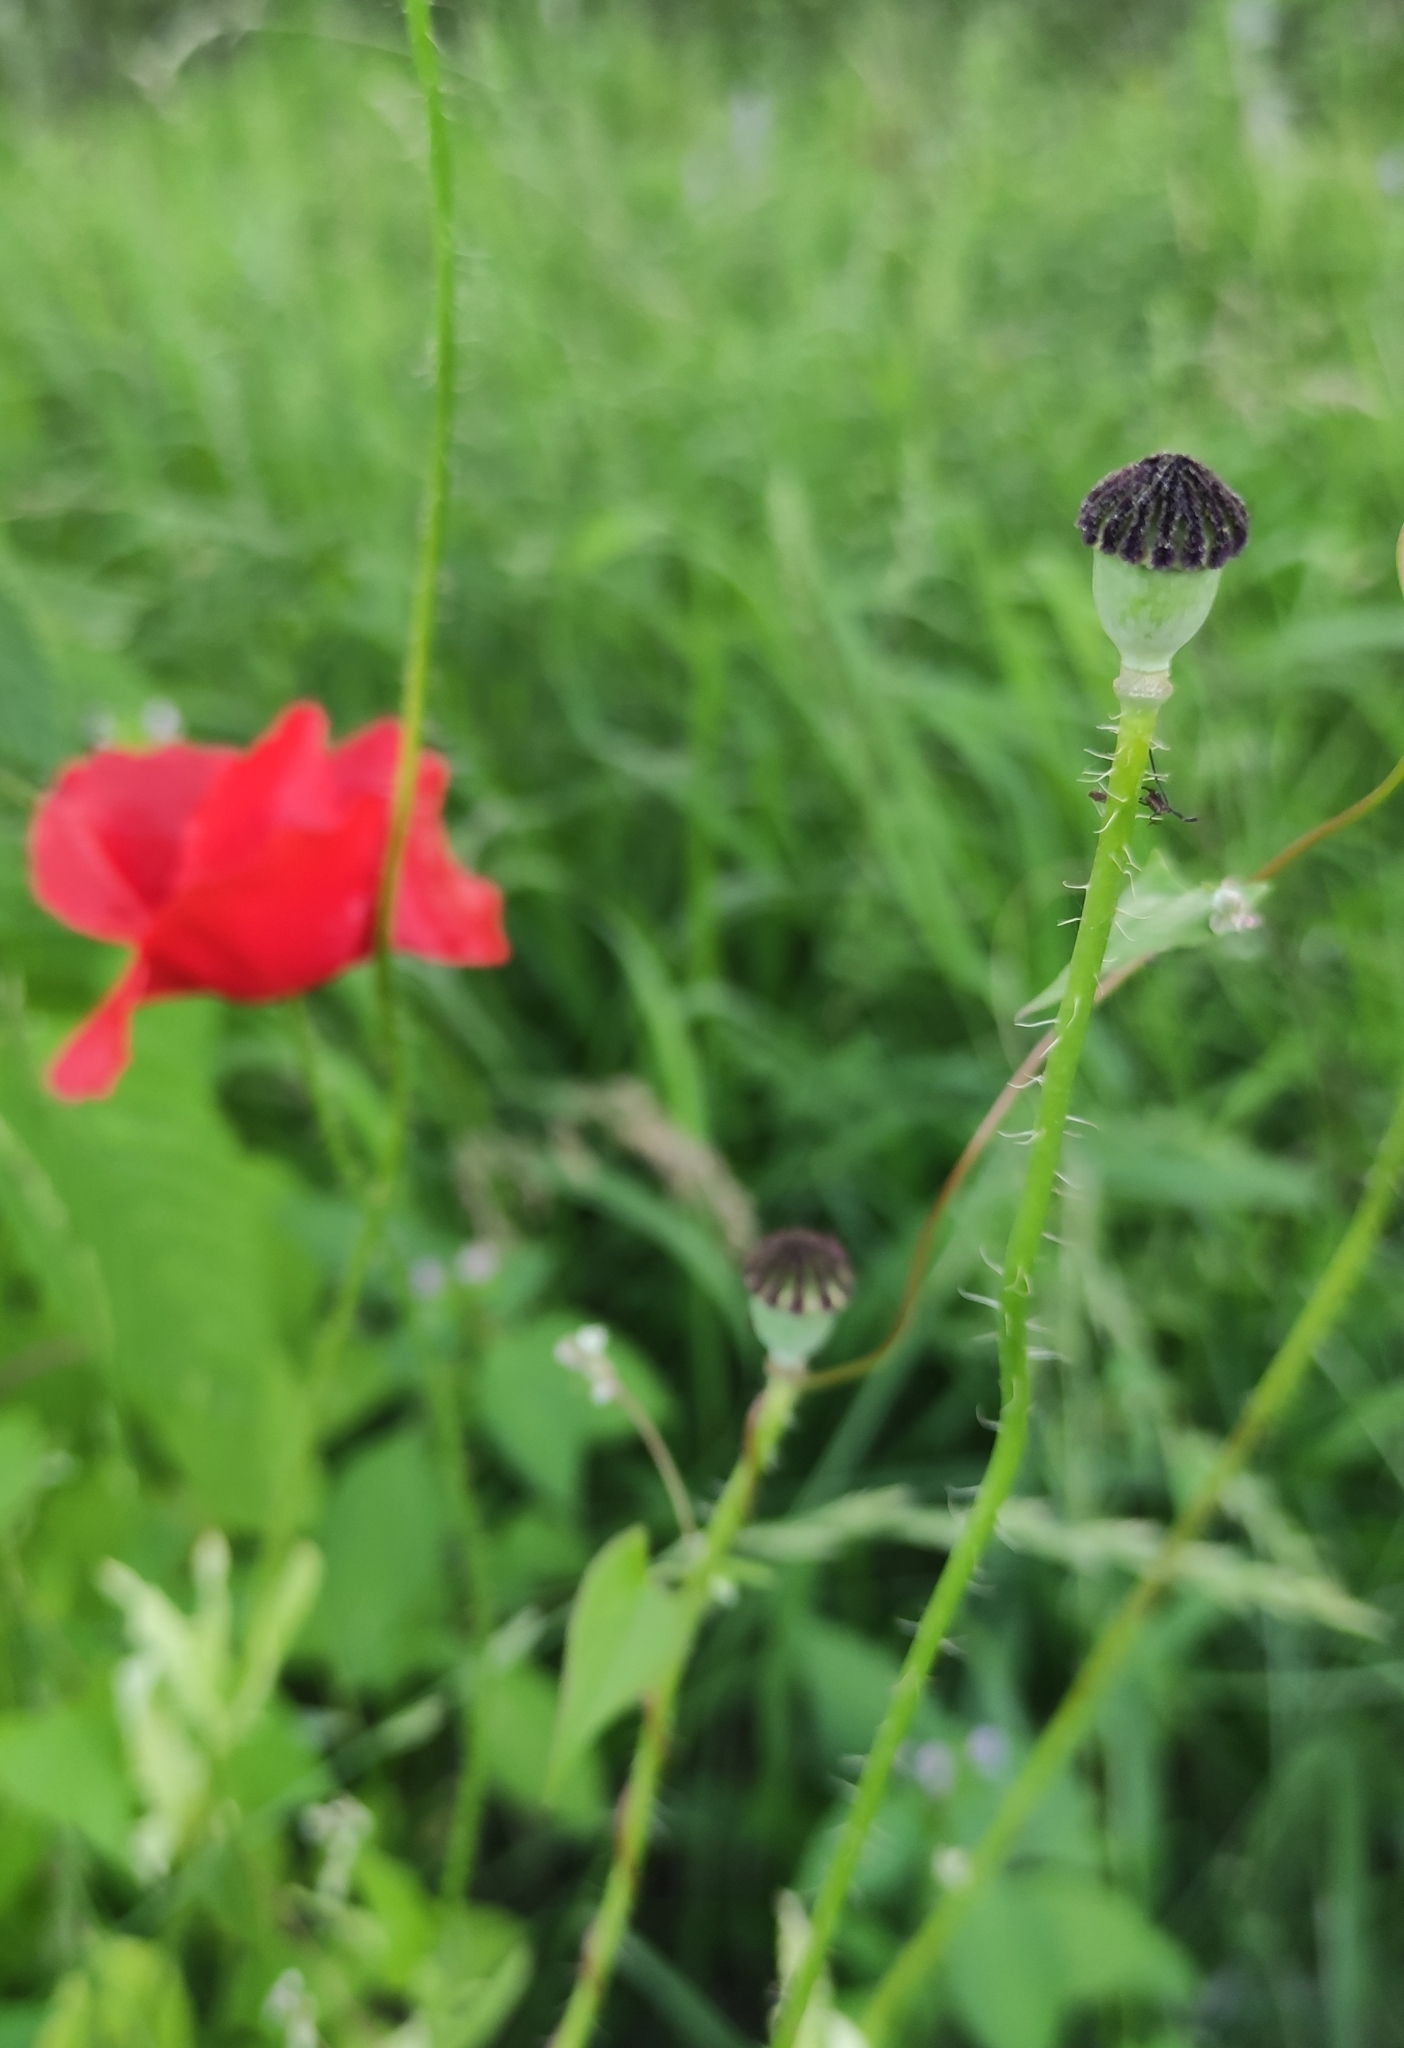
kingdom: Plantae
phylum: Tracheophyta
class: Magnoliopsida
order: Ranunculales
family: Papaveraceae
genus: Papaver
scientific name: Papaver rhoeas
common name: Corn poppy
